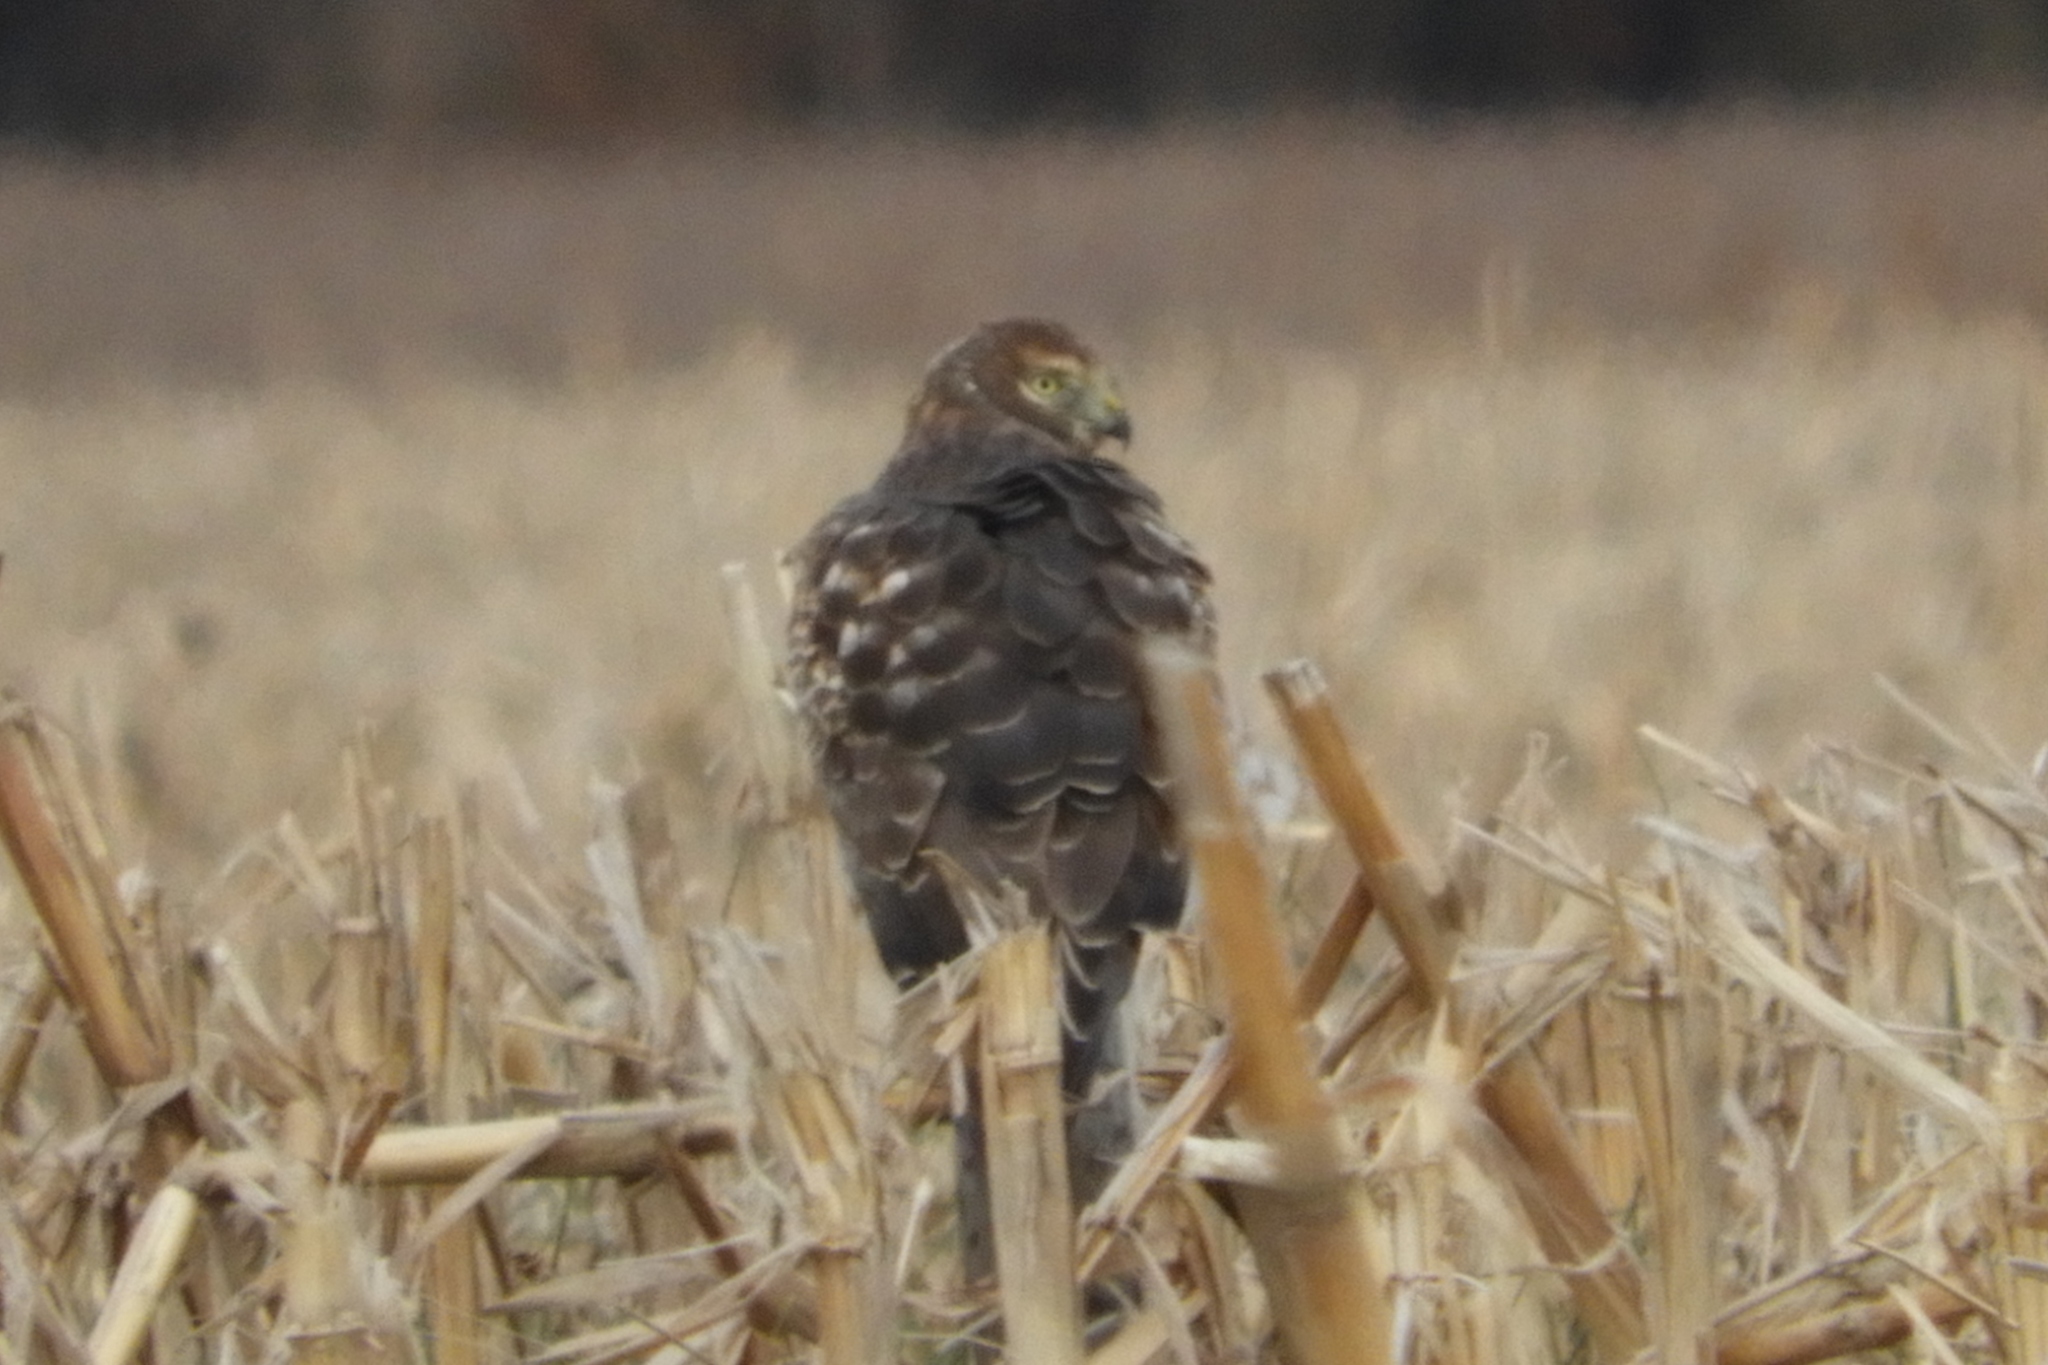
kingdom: Animalia
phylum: Chordata
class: Aves
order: Accipitriformes
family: Accipitridae
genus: Circus
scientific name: Circus cyaneus
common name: Hen harrier
